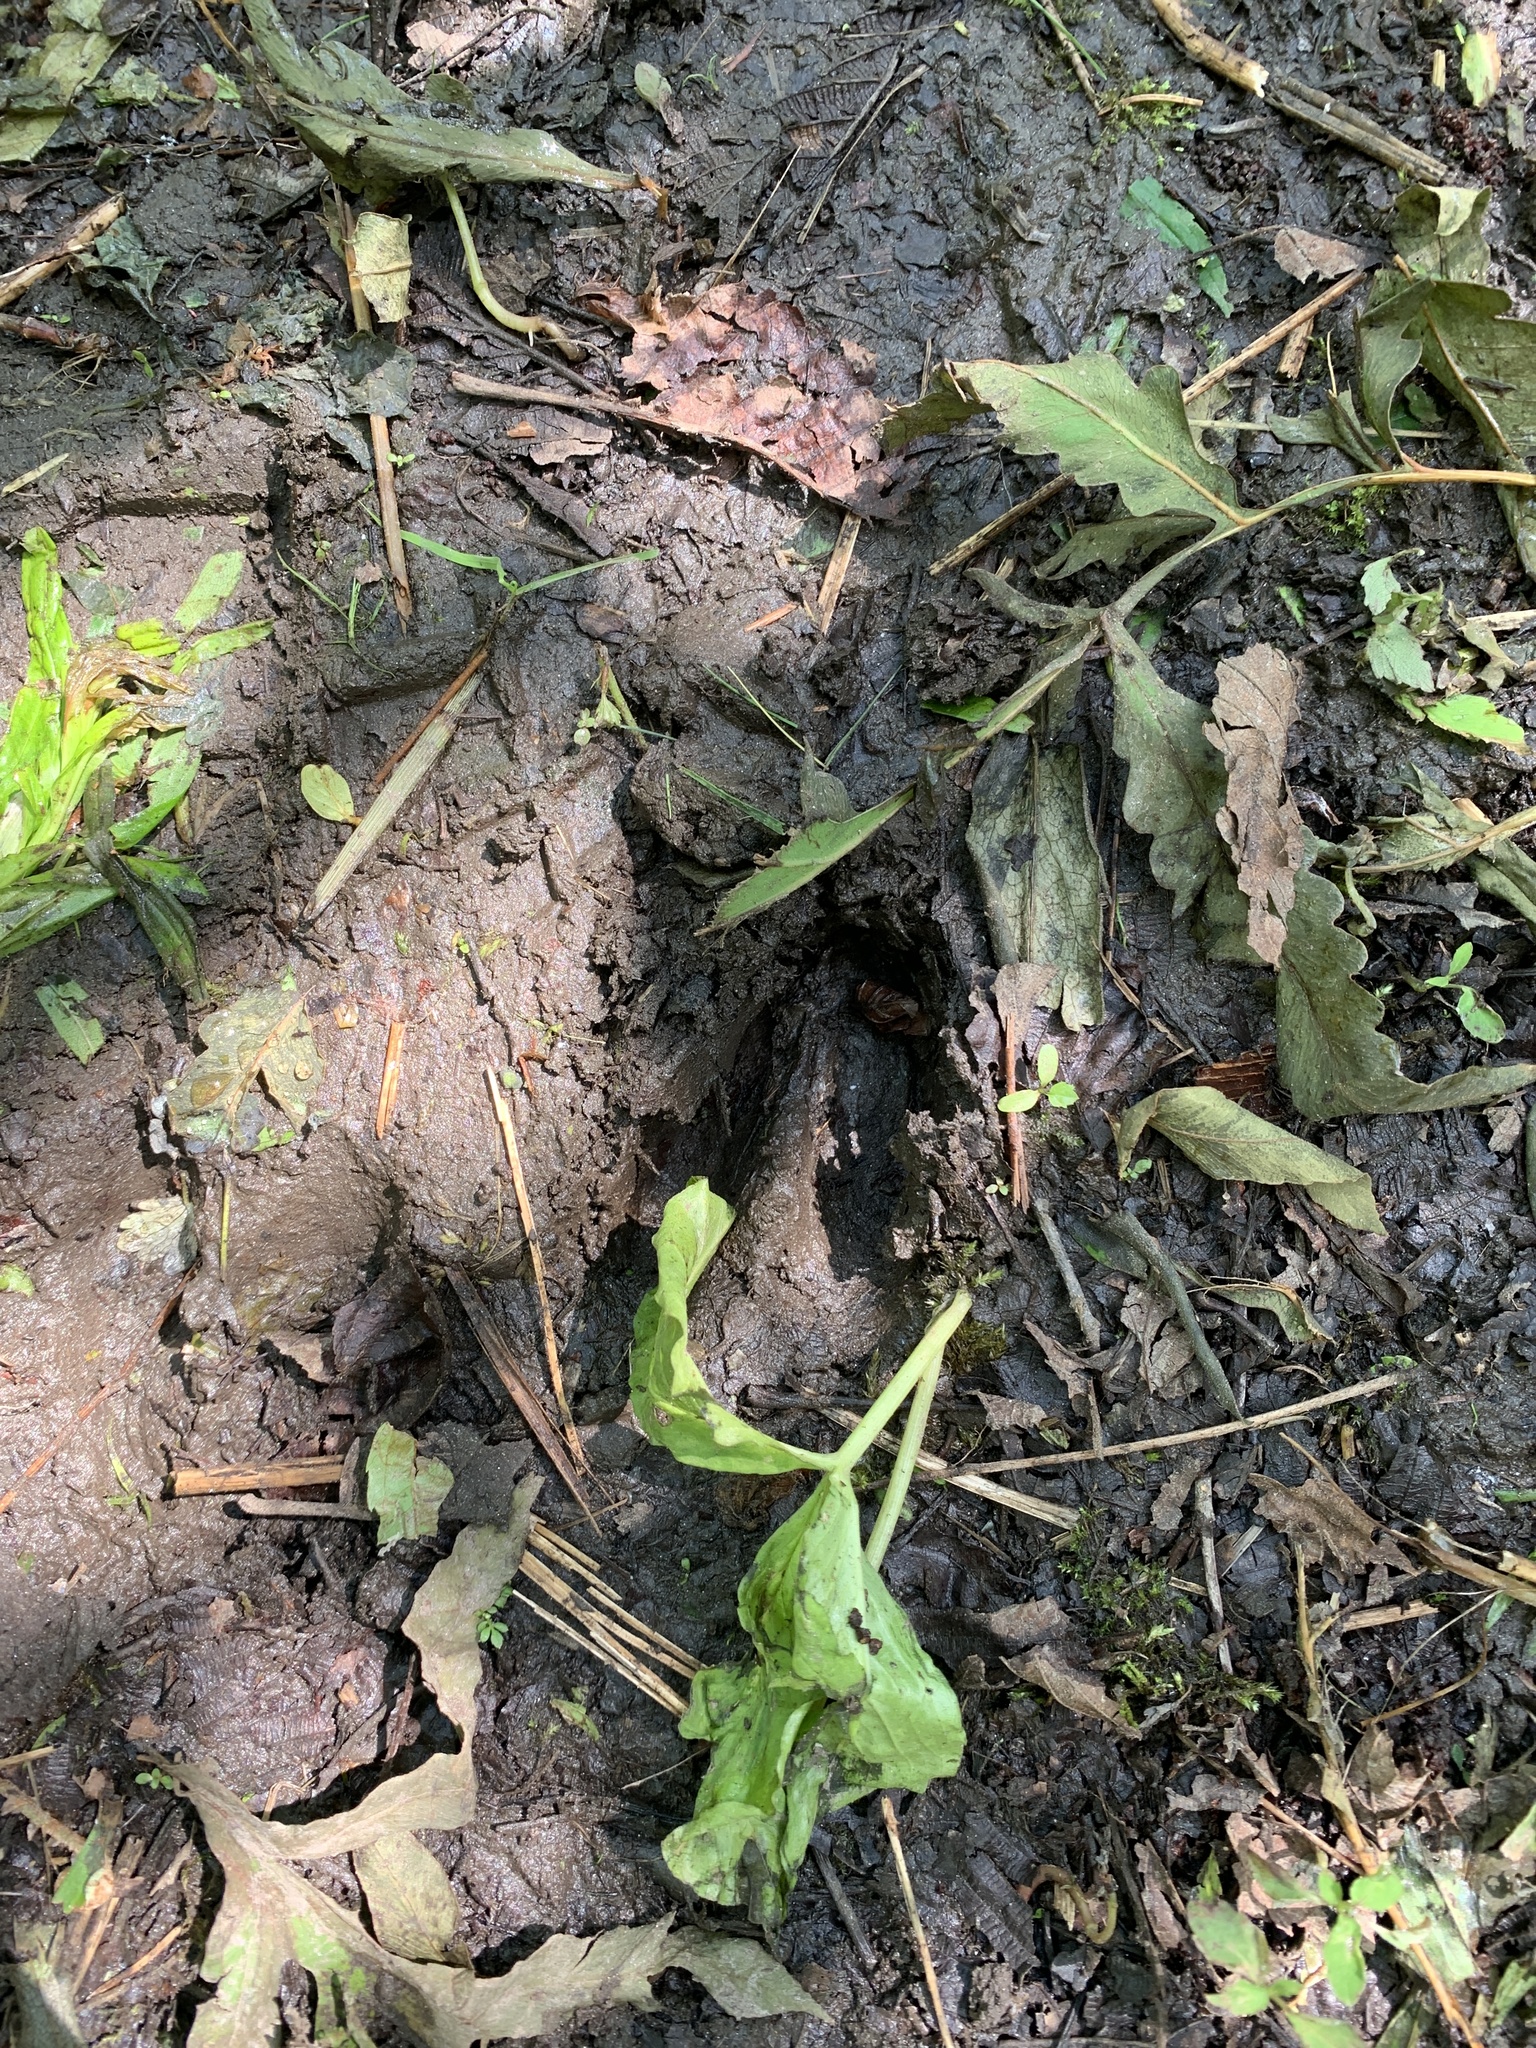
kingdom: Animalia
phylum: Chordata
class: Mammalia
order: Artiodactyla
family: Cervidae
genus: Odocoileus
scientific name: Odocoileus virginianus
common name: White-tailed deer
